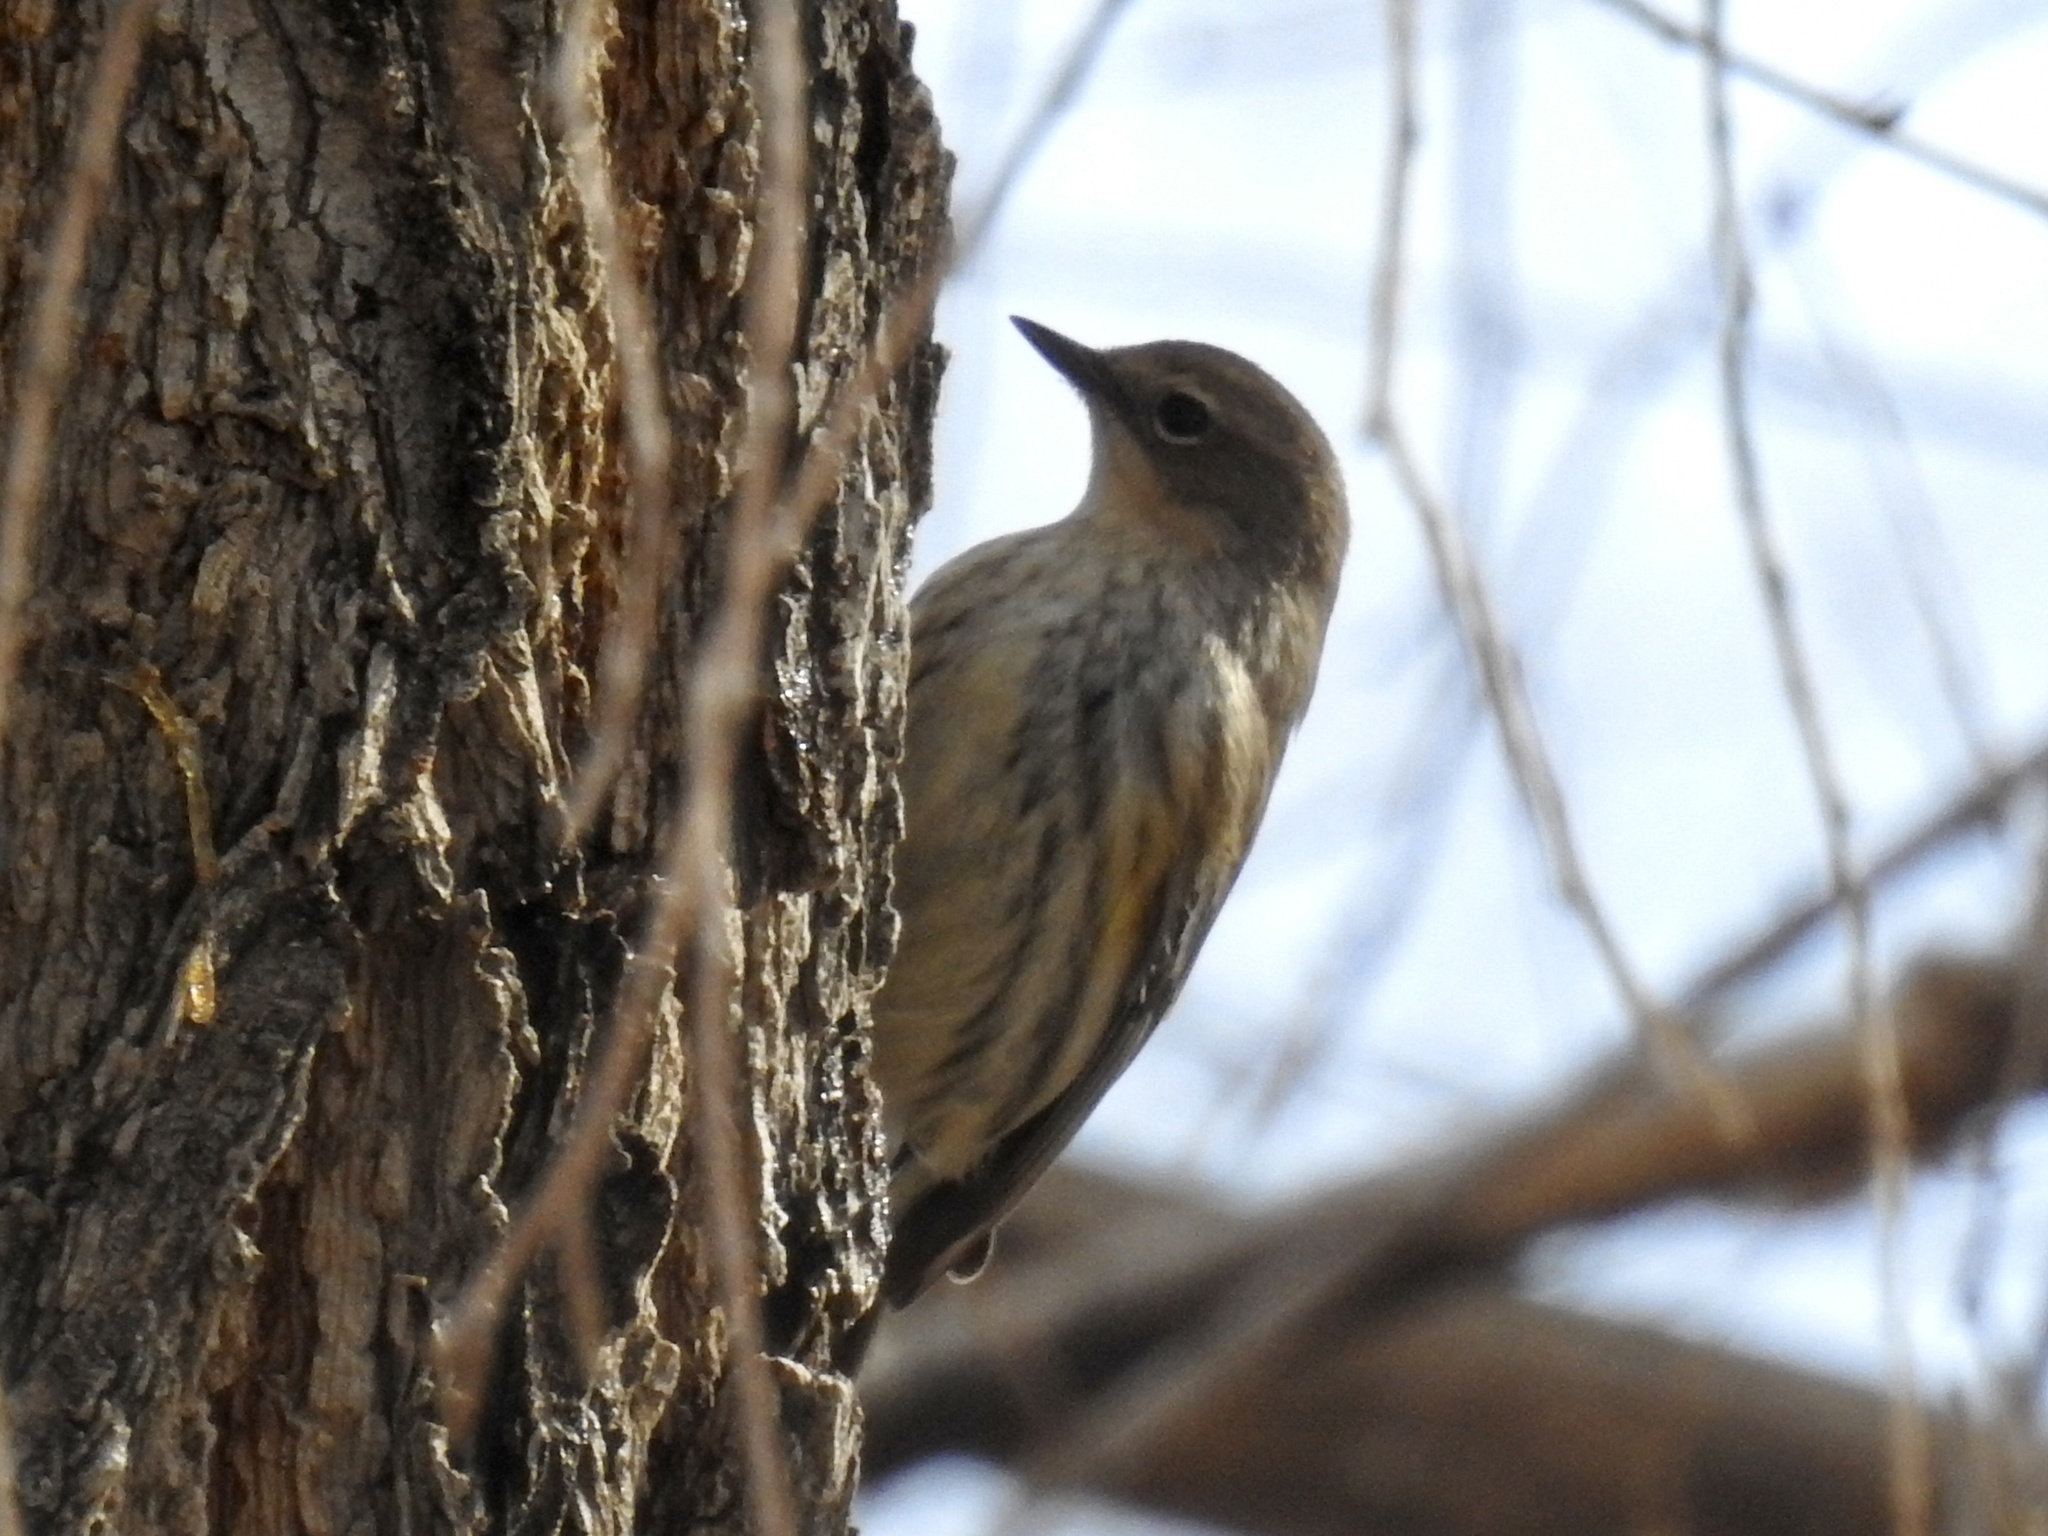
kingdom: Animalia
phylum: Chordata
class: Aves
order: Passeriformes
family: Parulidae
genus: Setophaga
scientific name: Setophaga coronata
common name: Myrtle warbler
